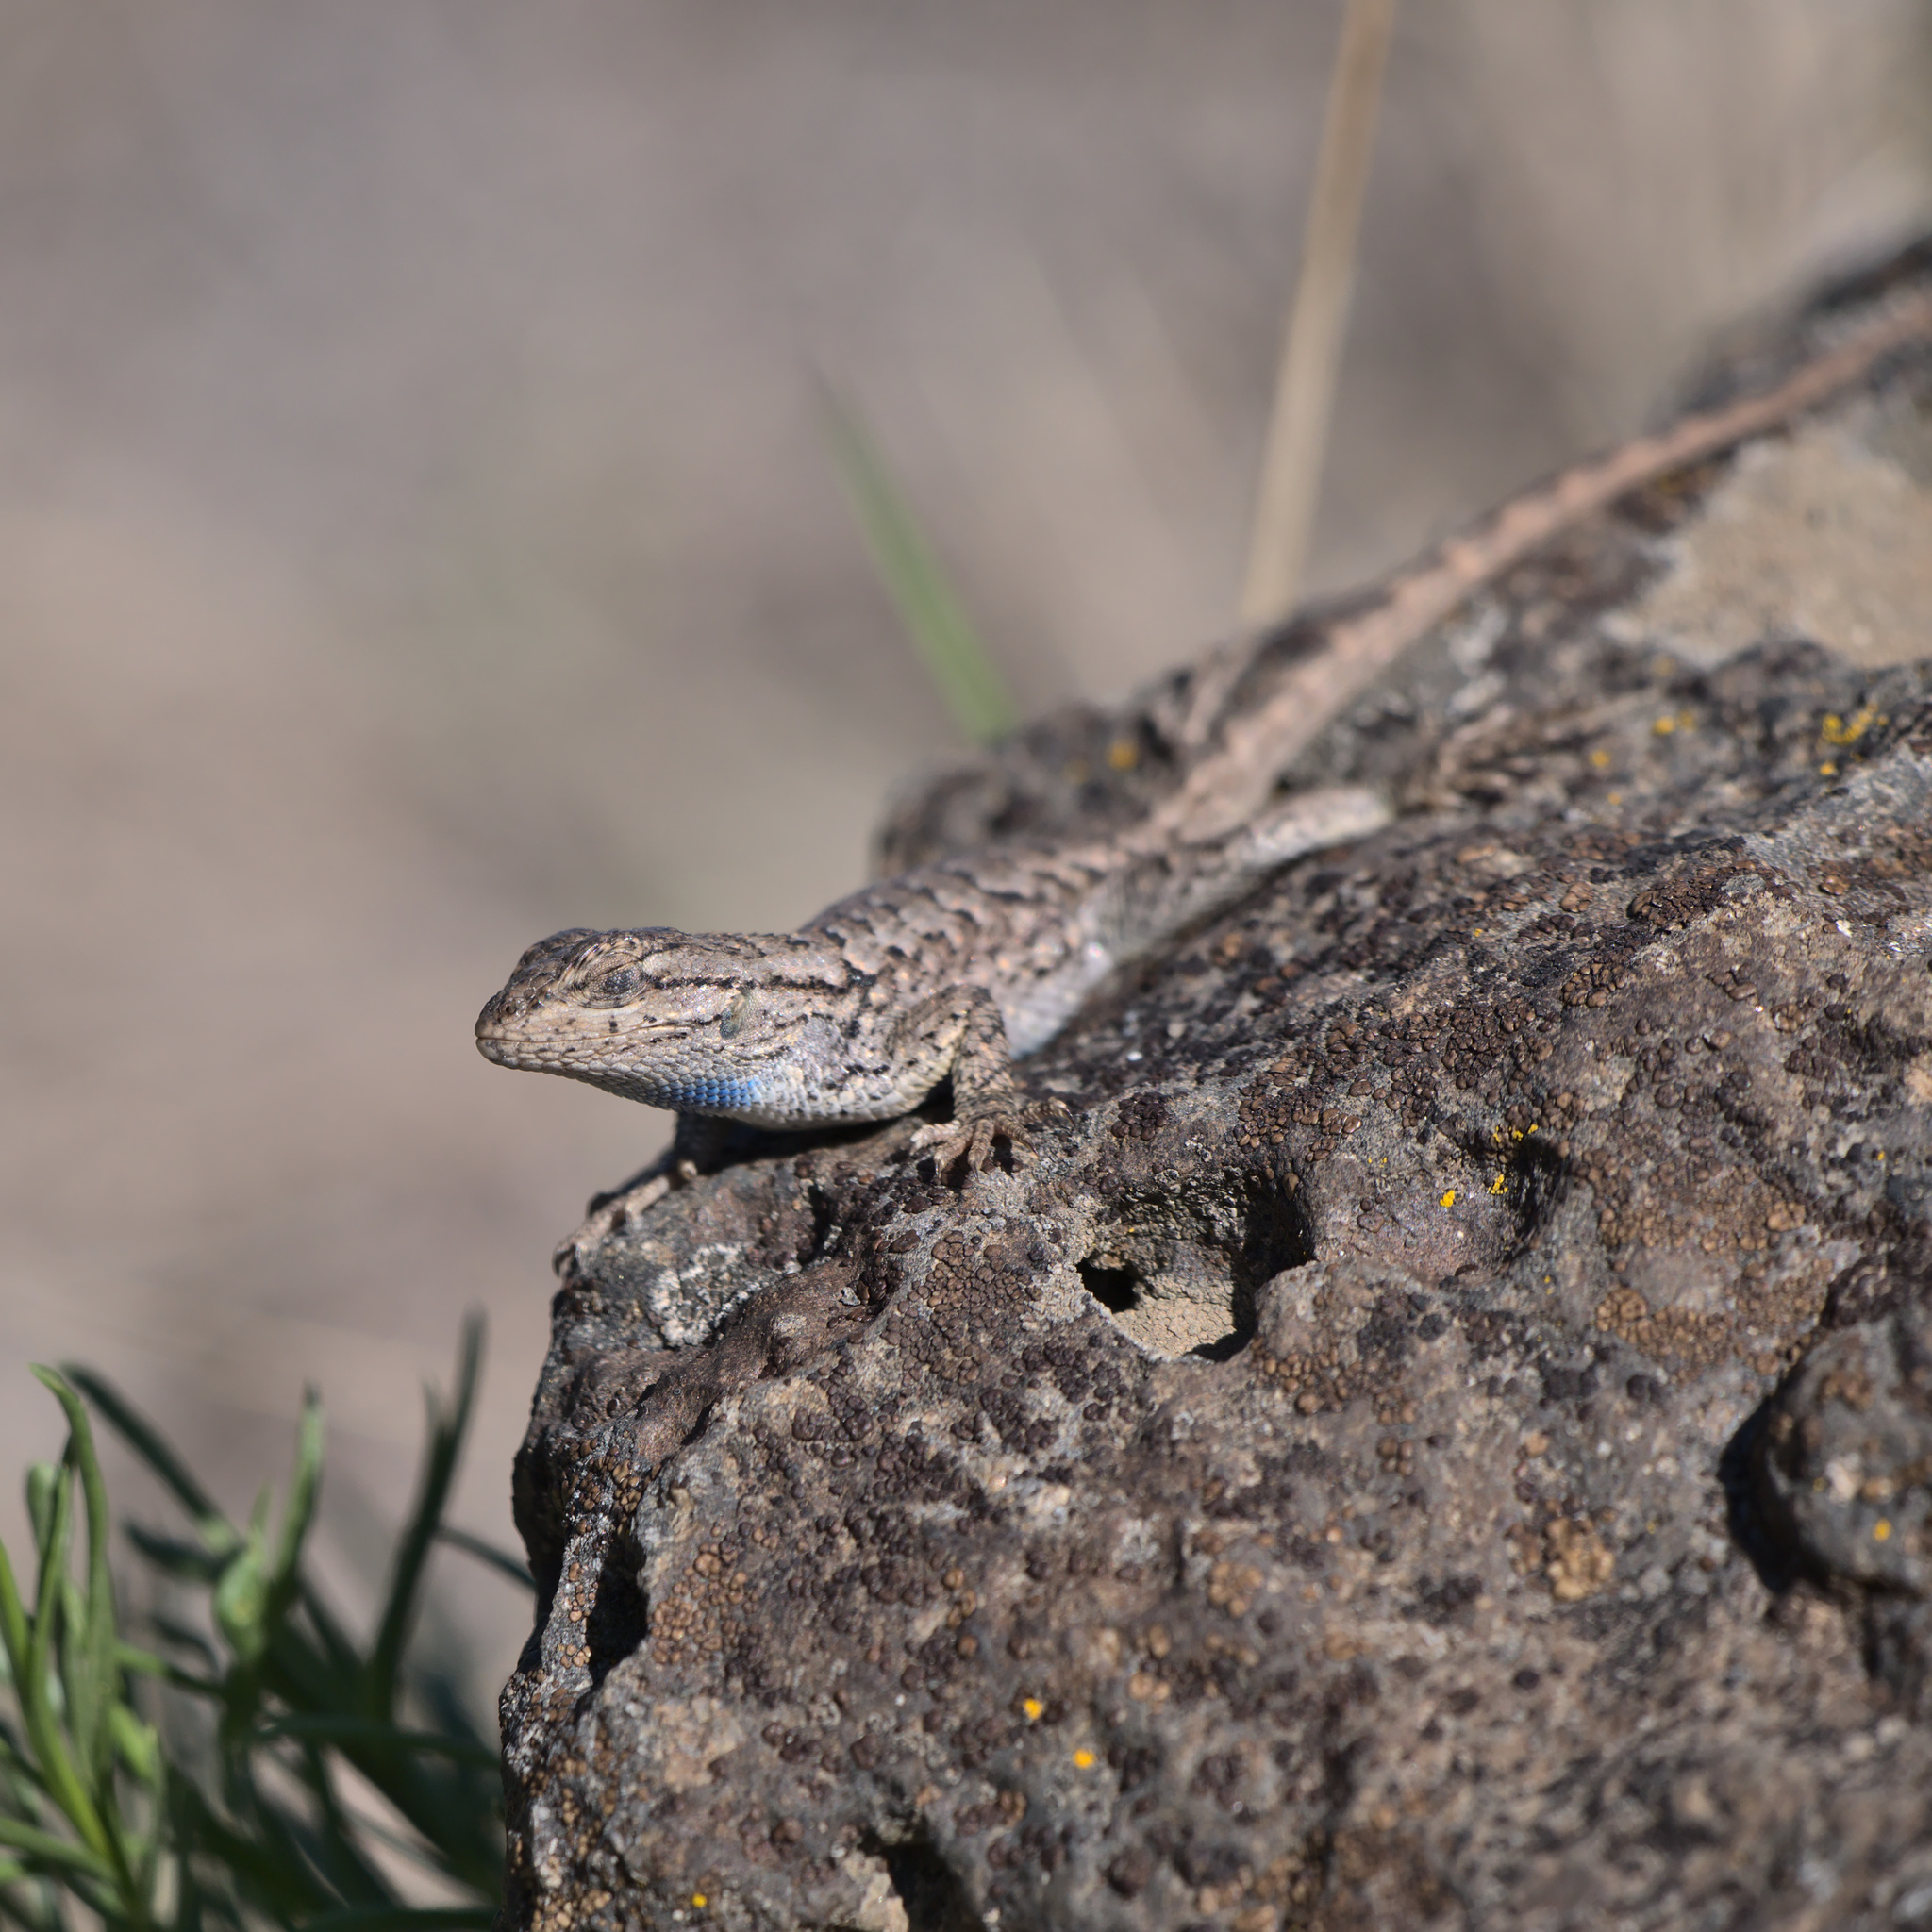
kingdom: Animalia
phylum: Chordata
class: Squamata
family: Phrynosomatidae
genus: Sceloporus
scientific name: Sceloporus occidentalis
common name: Western fence lizard
